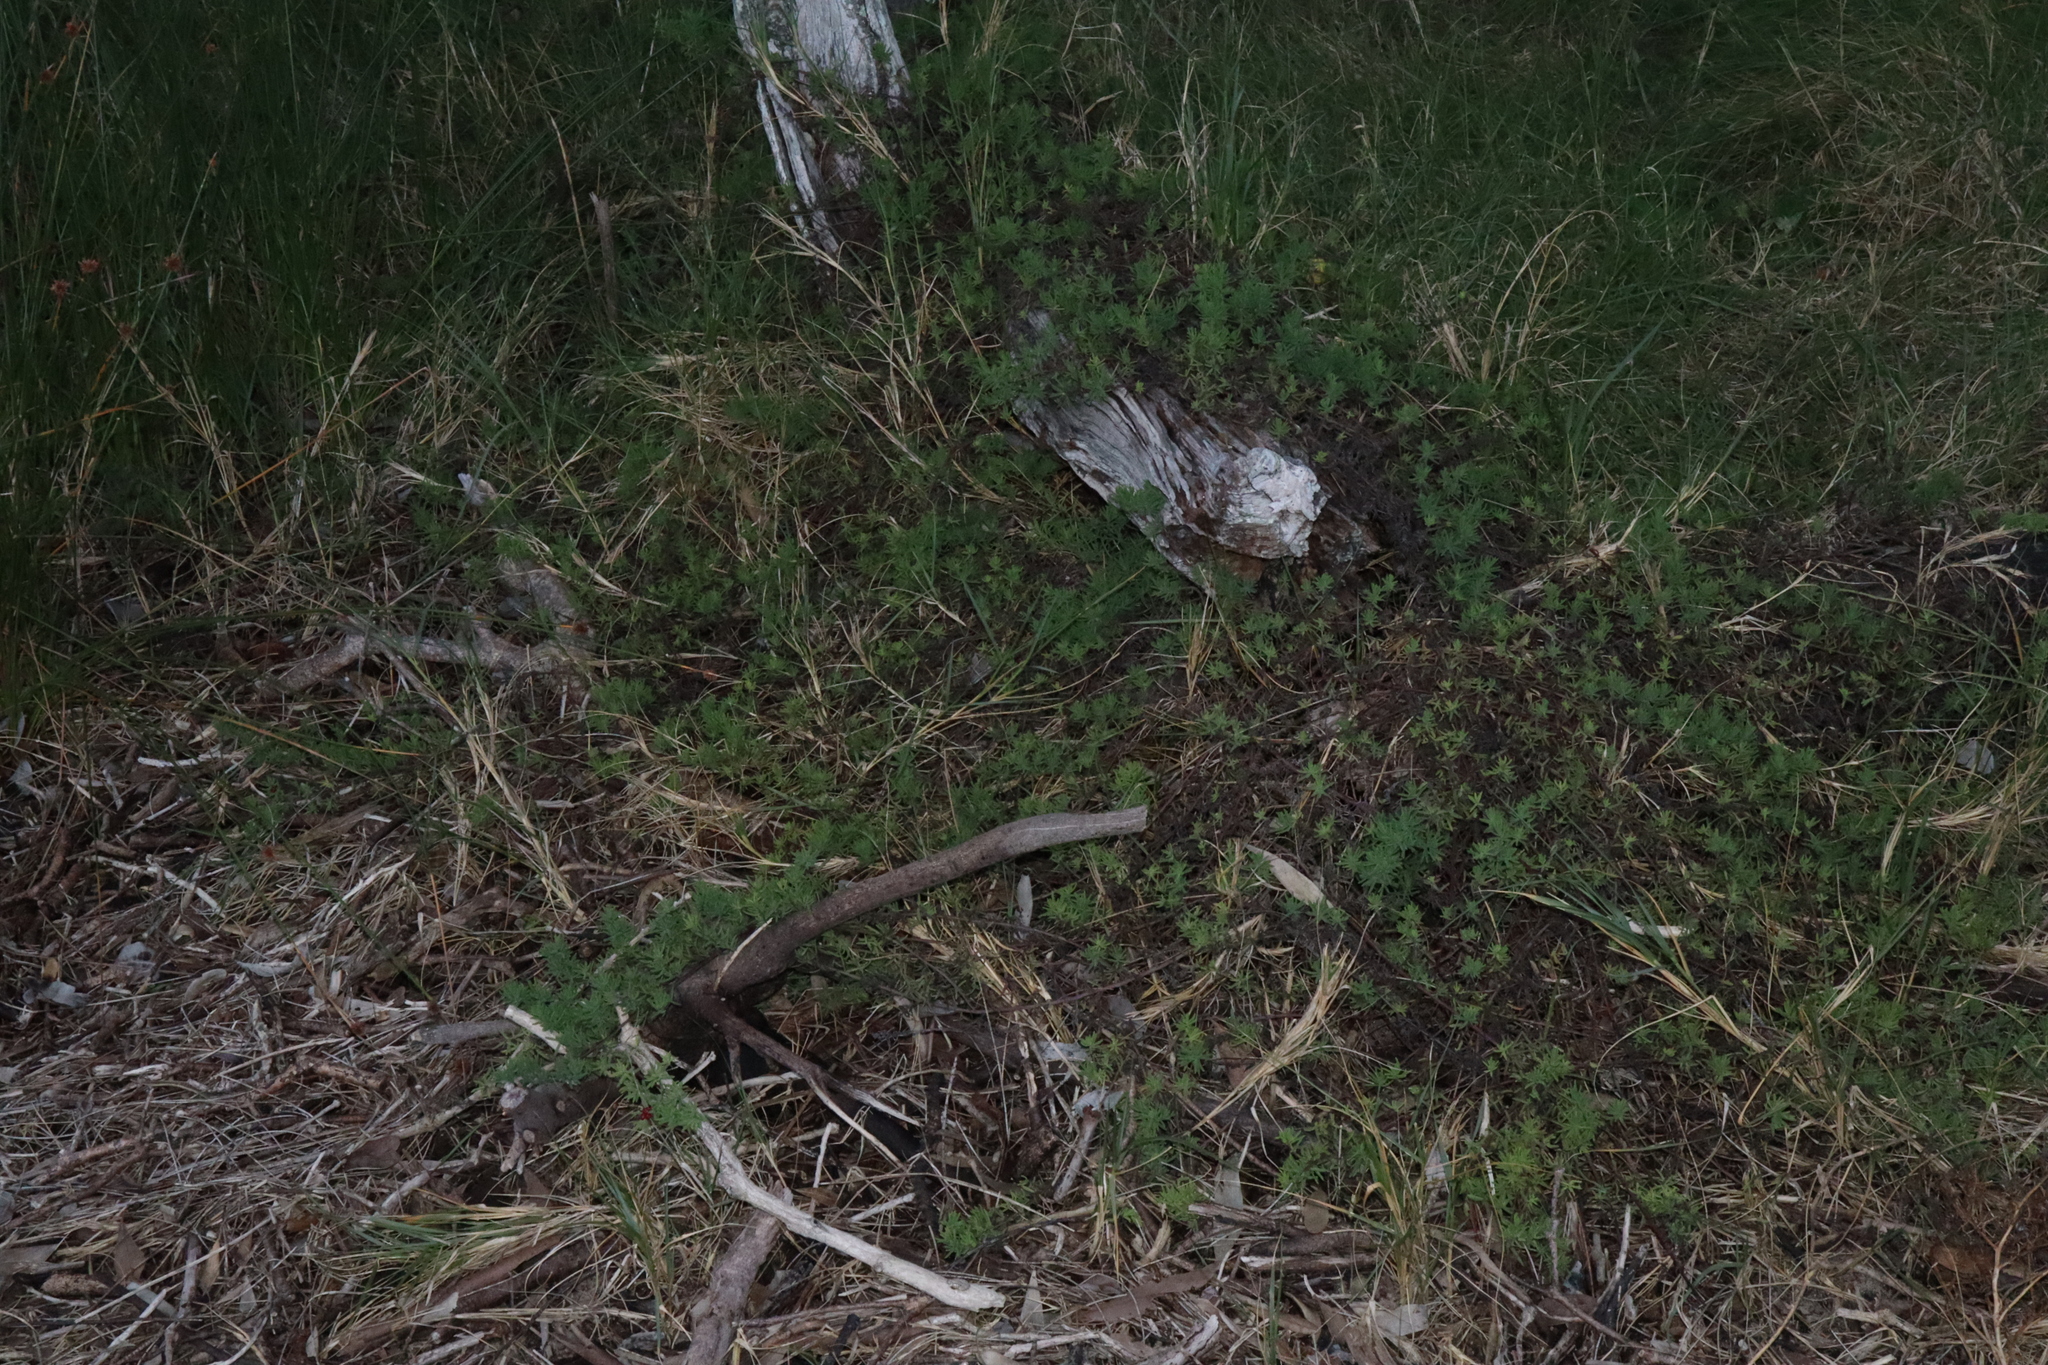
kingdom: Plantae
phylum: Tracheophyta
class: Magnoliopsida
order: Caryophyllales
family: Amaranthaceae
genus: Enchylaena
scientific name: Enchylaena tomentosa
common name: Ruby saltbush
